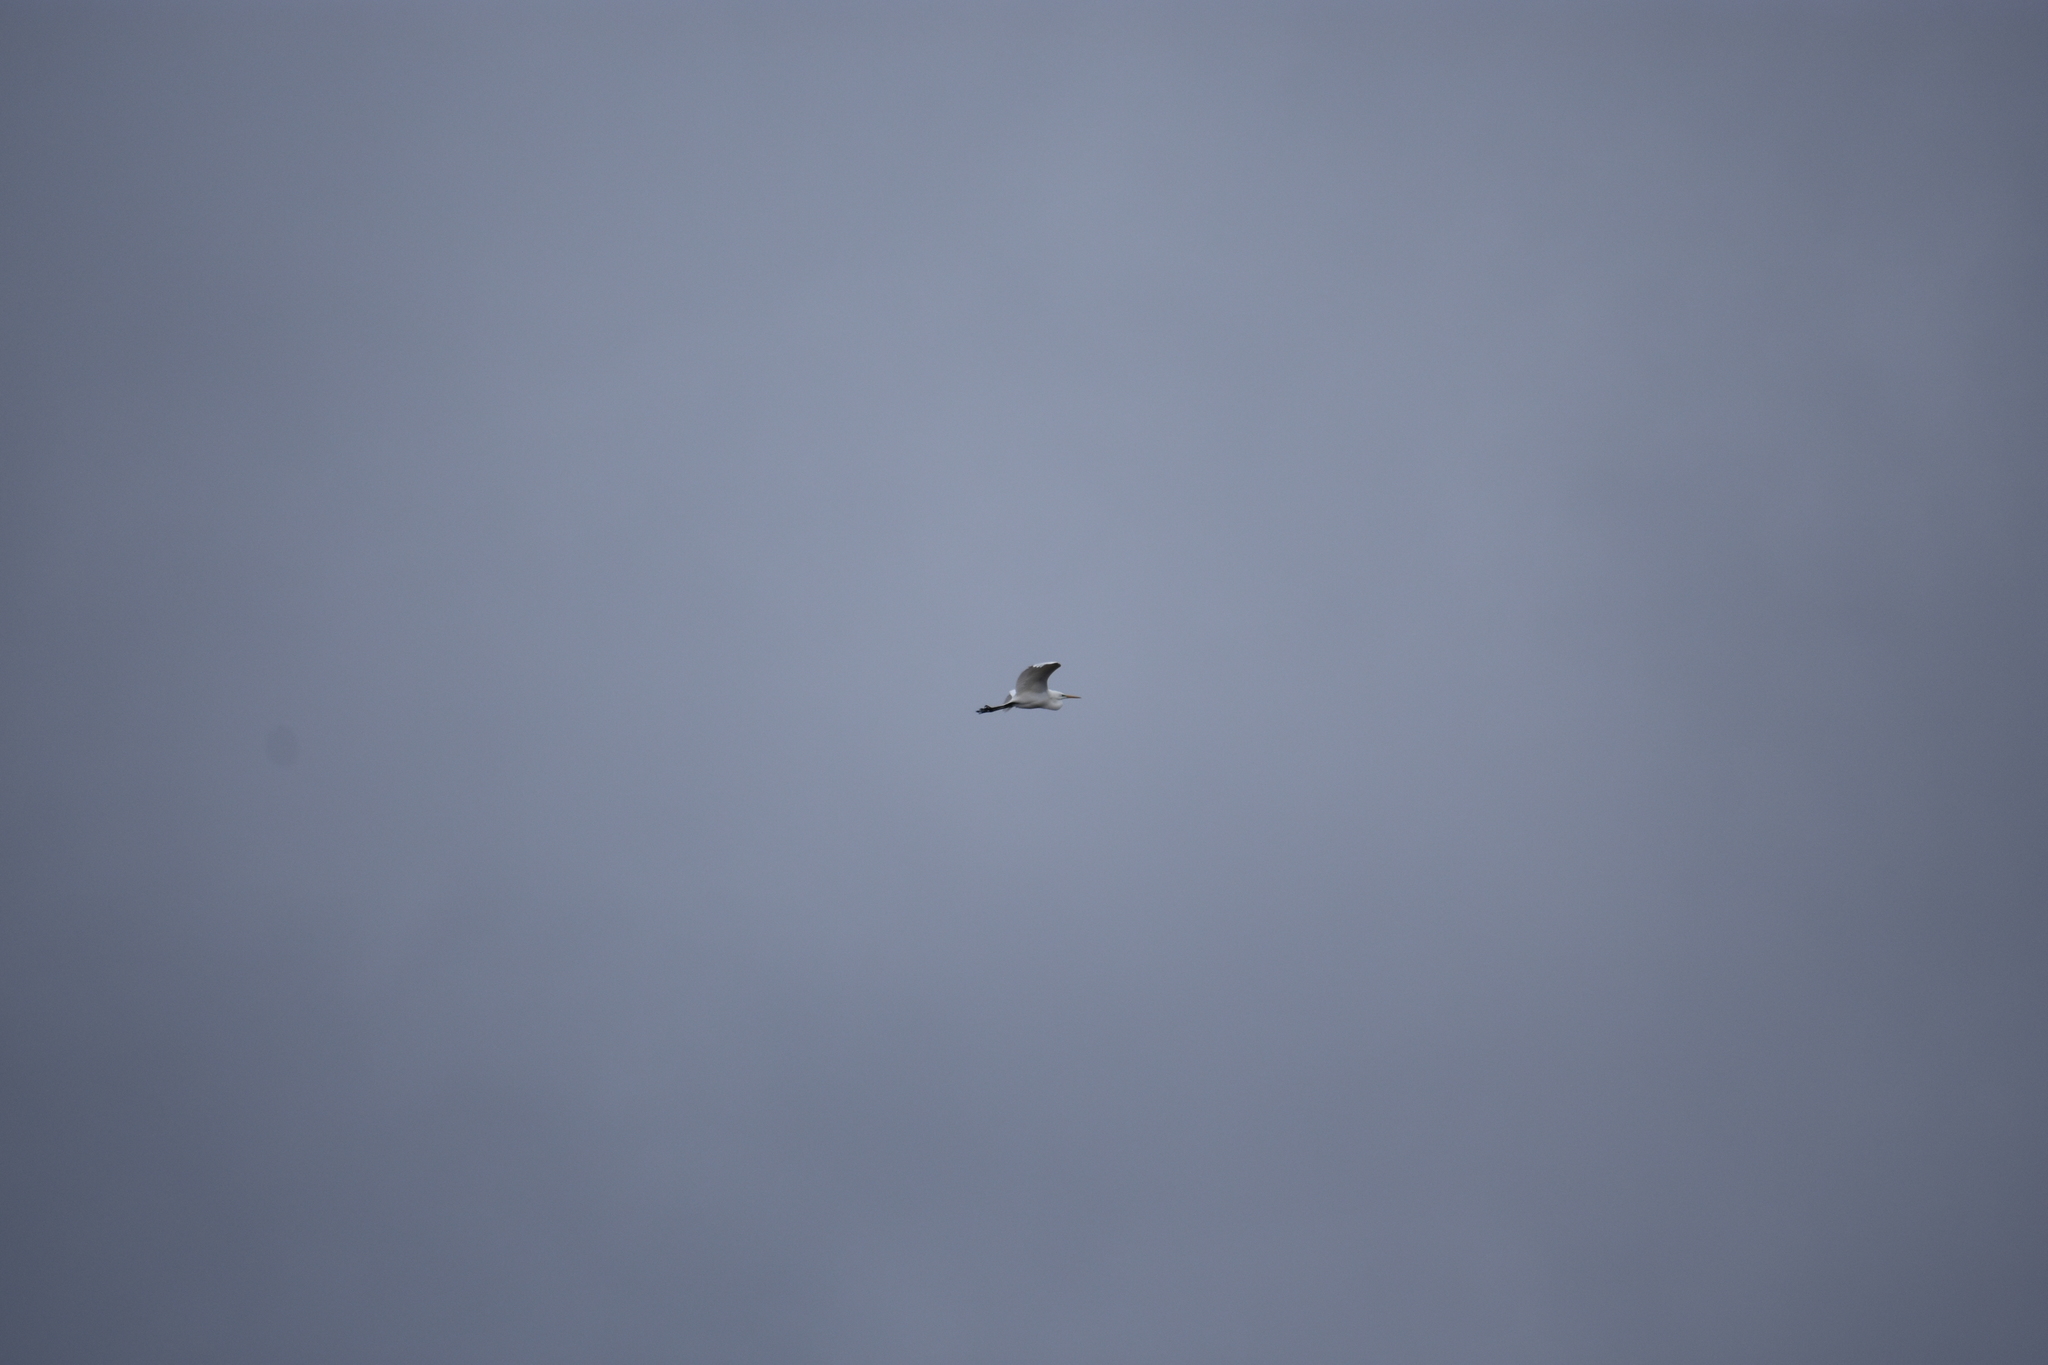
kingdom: Animalia
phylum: Chordata
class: Aves
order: Pelecaniformes
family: Ardeidae
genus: Ardea
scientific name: Ardea alba
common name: Great egret
